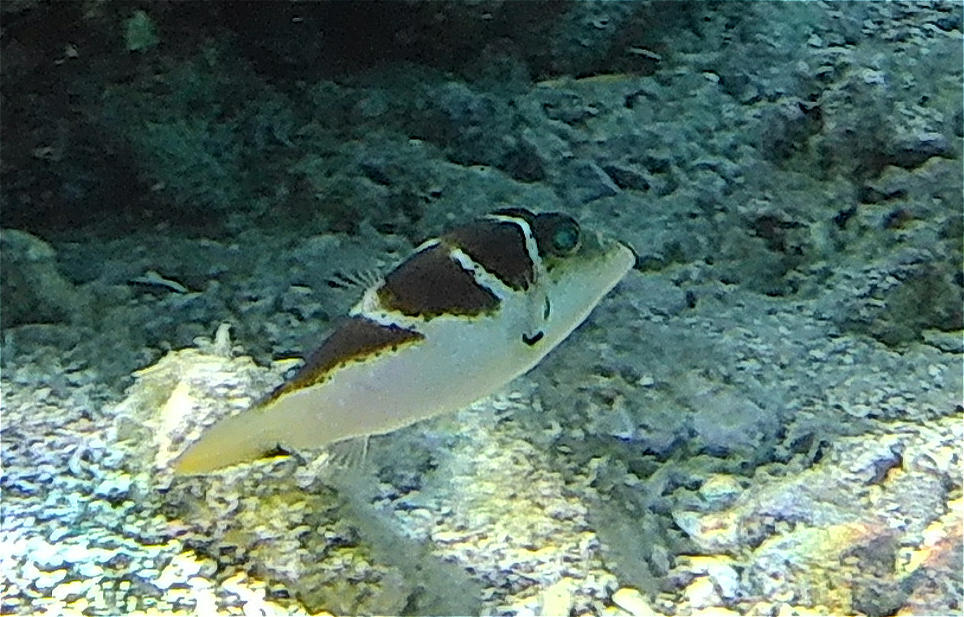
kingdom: Animalia
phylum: Chordata
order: Tetraodontiformes
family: Tetraodontidae
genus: Canthigaster
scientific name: Canthigaster cyanospilota
